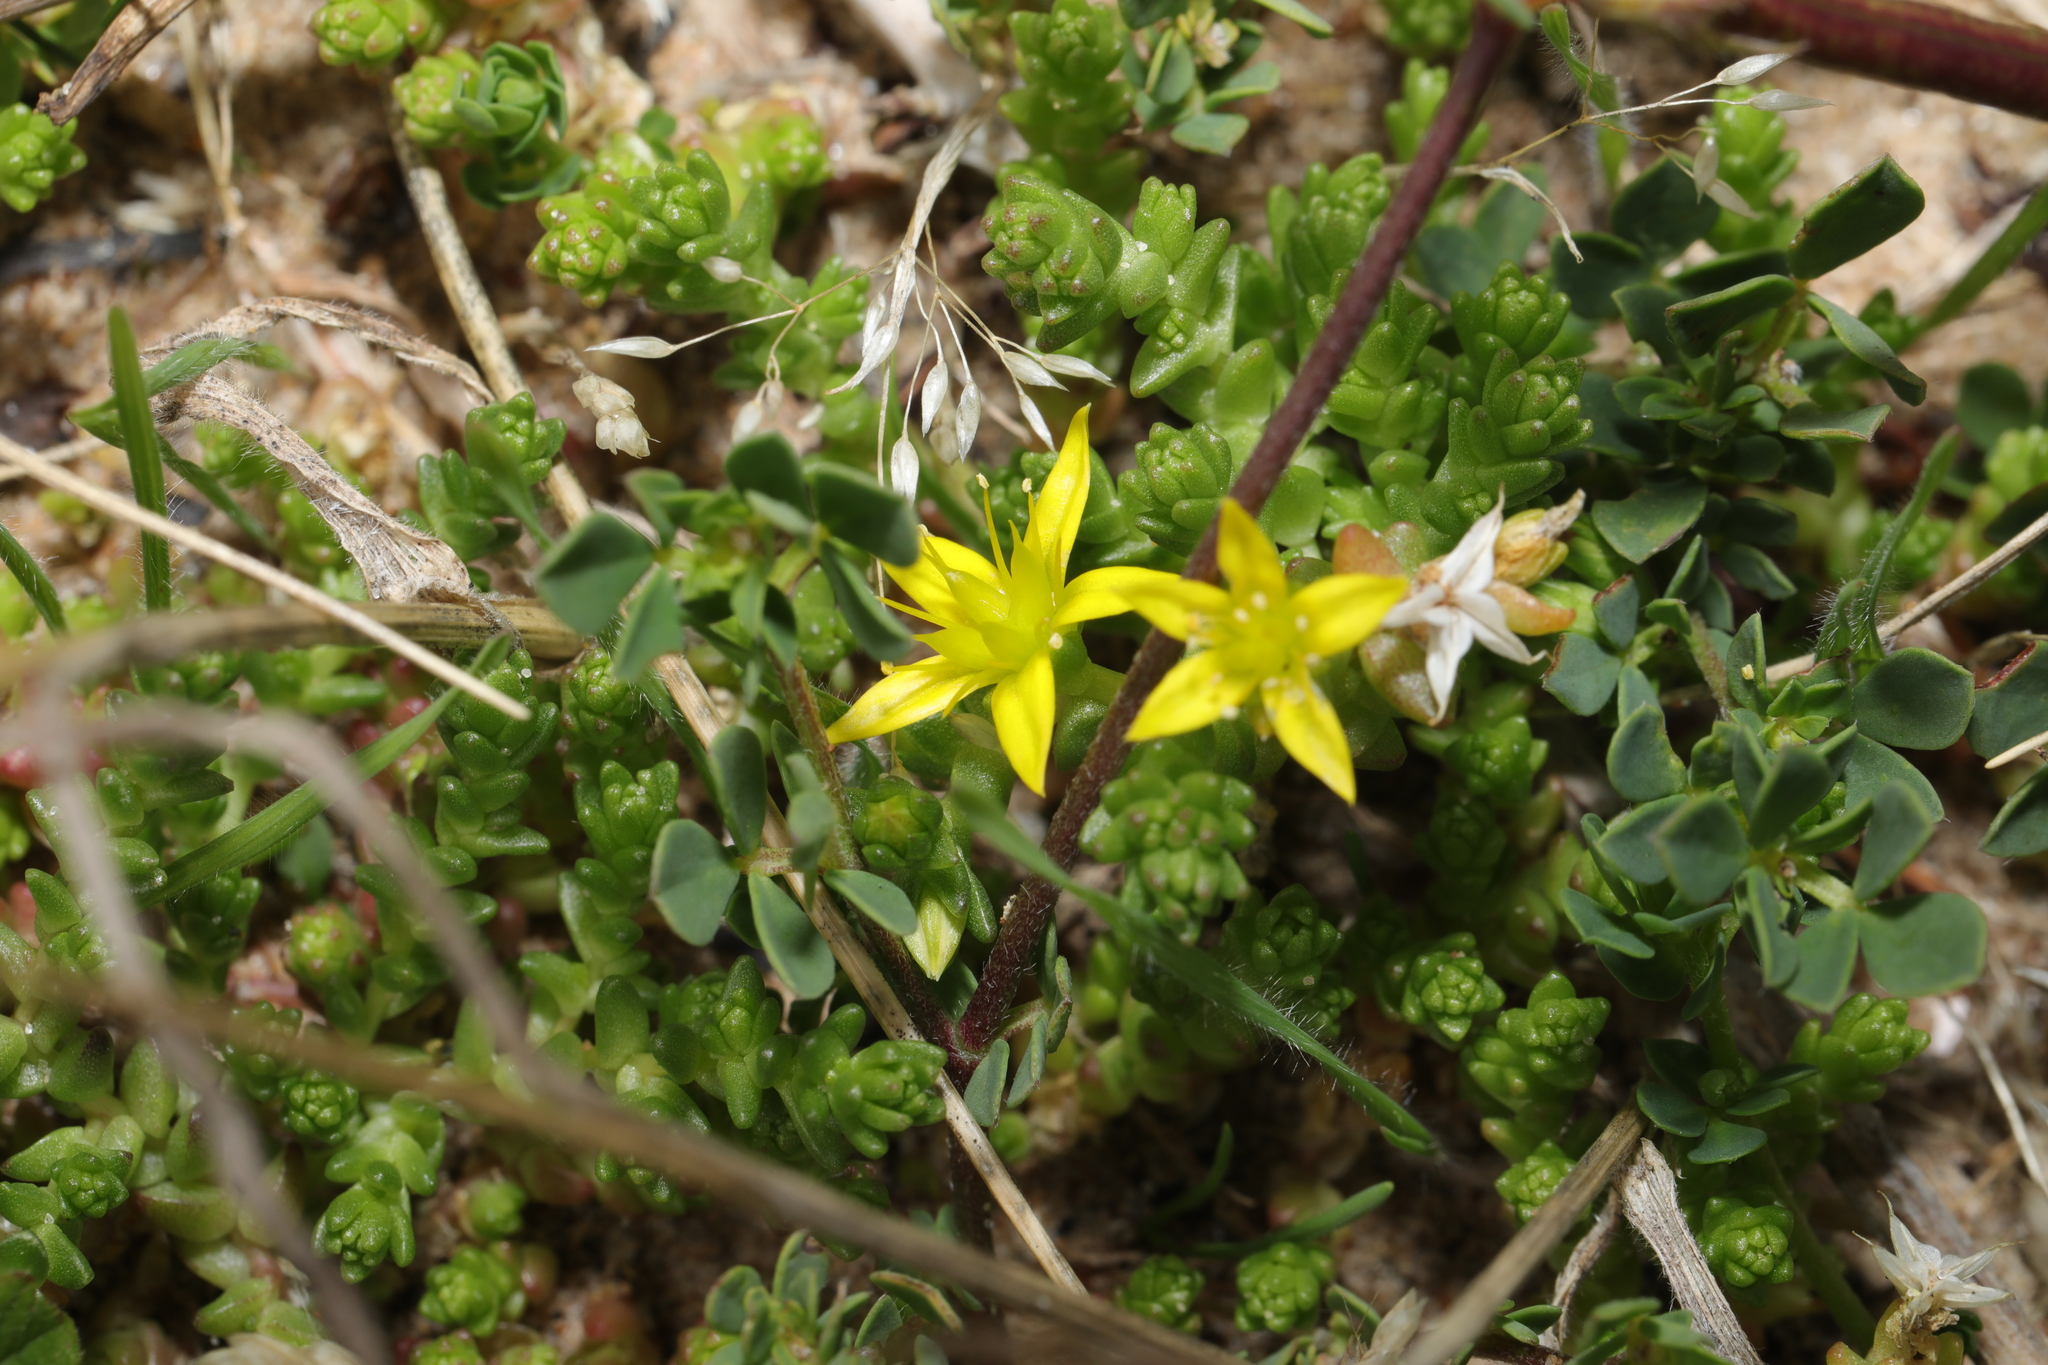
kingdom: Plantae
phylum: Tracheophyta
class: Magnoliopsida
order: Saxifragales
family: Crassulaceae
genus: Sedum
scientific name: Sedum acre
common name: Biting stonecrop
